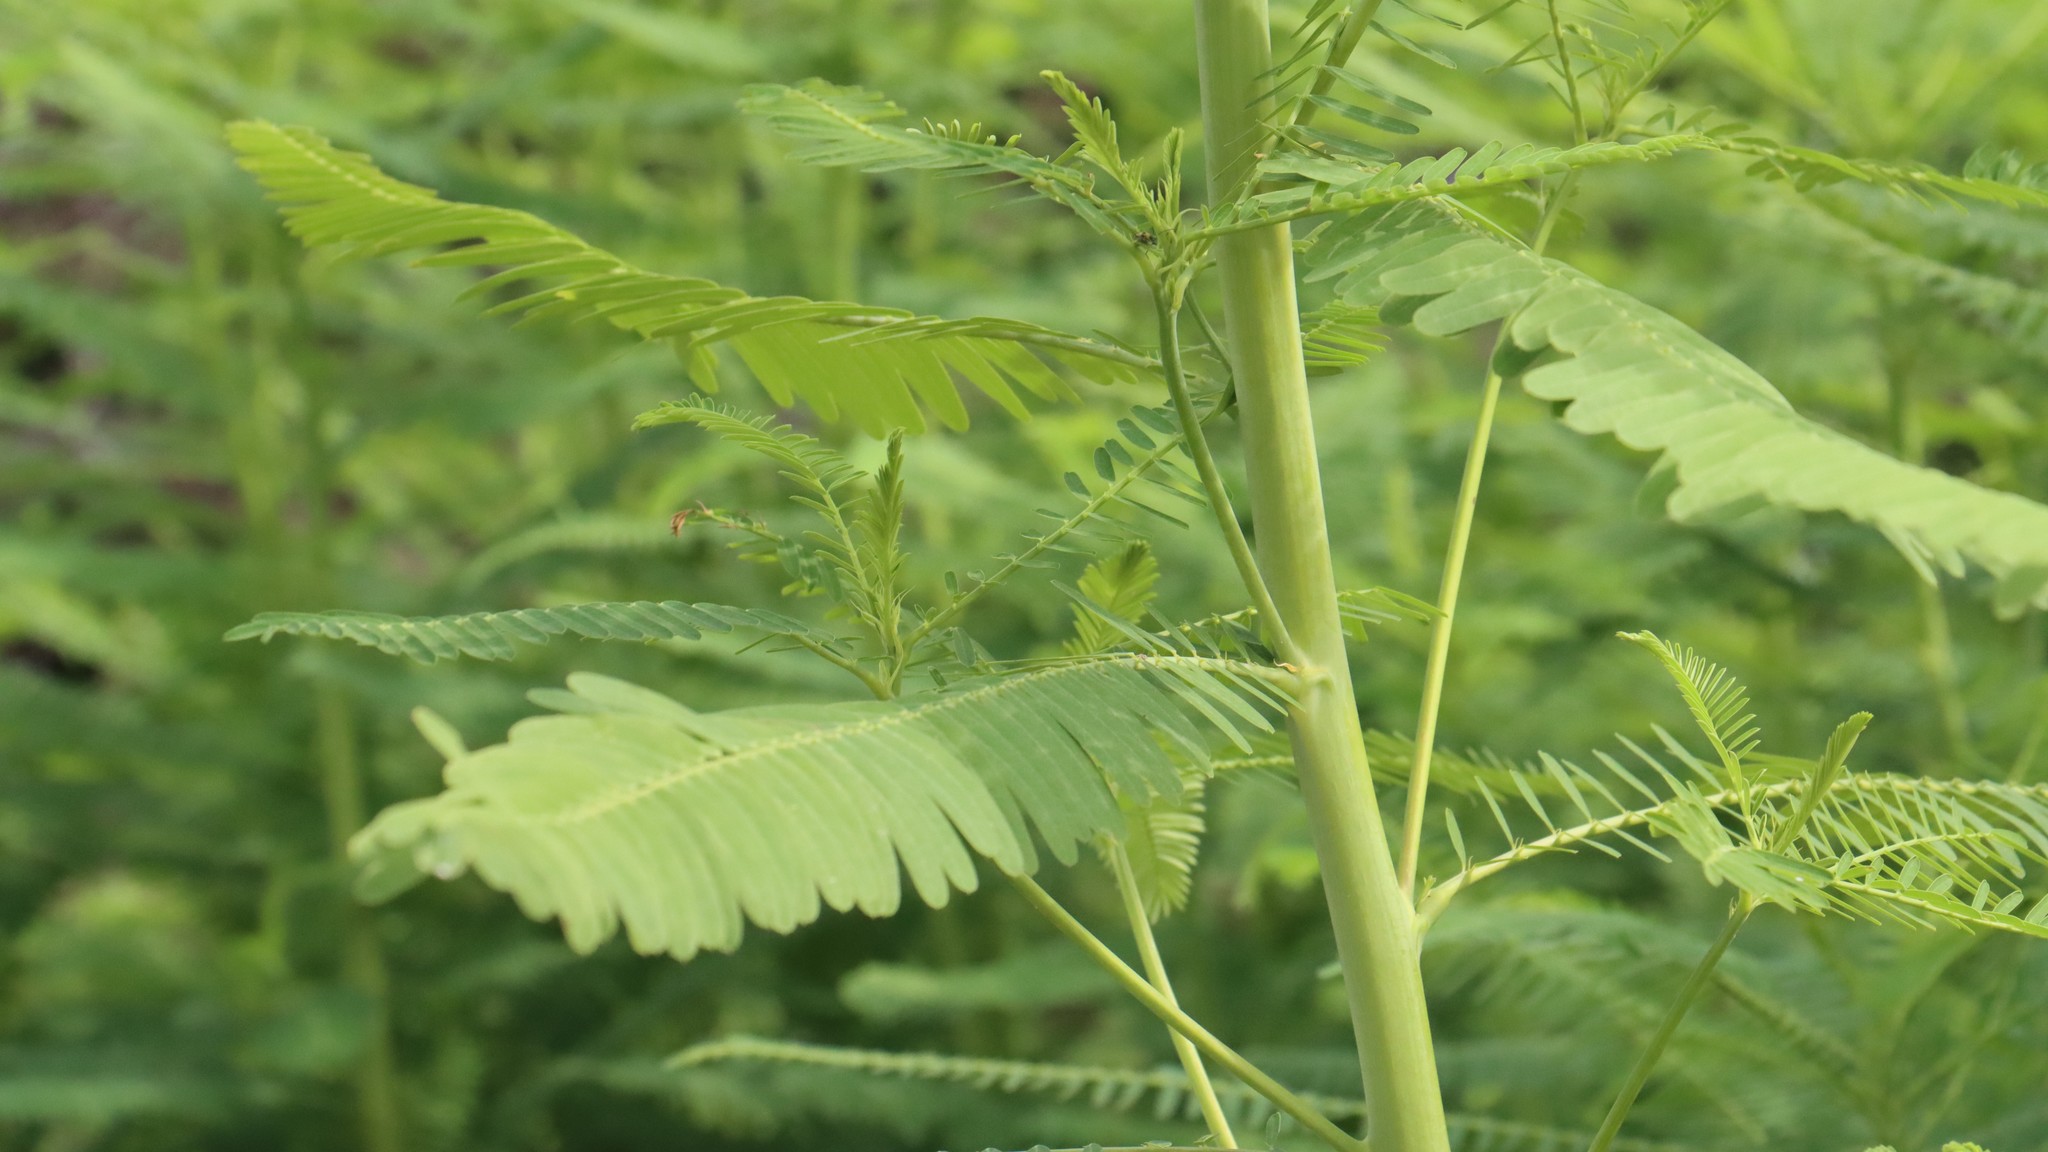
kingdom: Plantae
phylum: Tracheophyta
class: Magnoliopsida
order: Fabales
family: Fabaceae
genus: Sesbania
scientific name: Sesbania herbacea
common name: Bigpod sesbania
